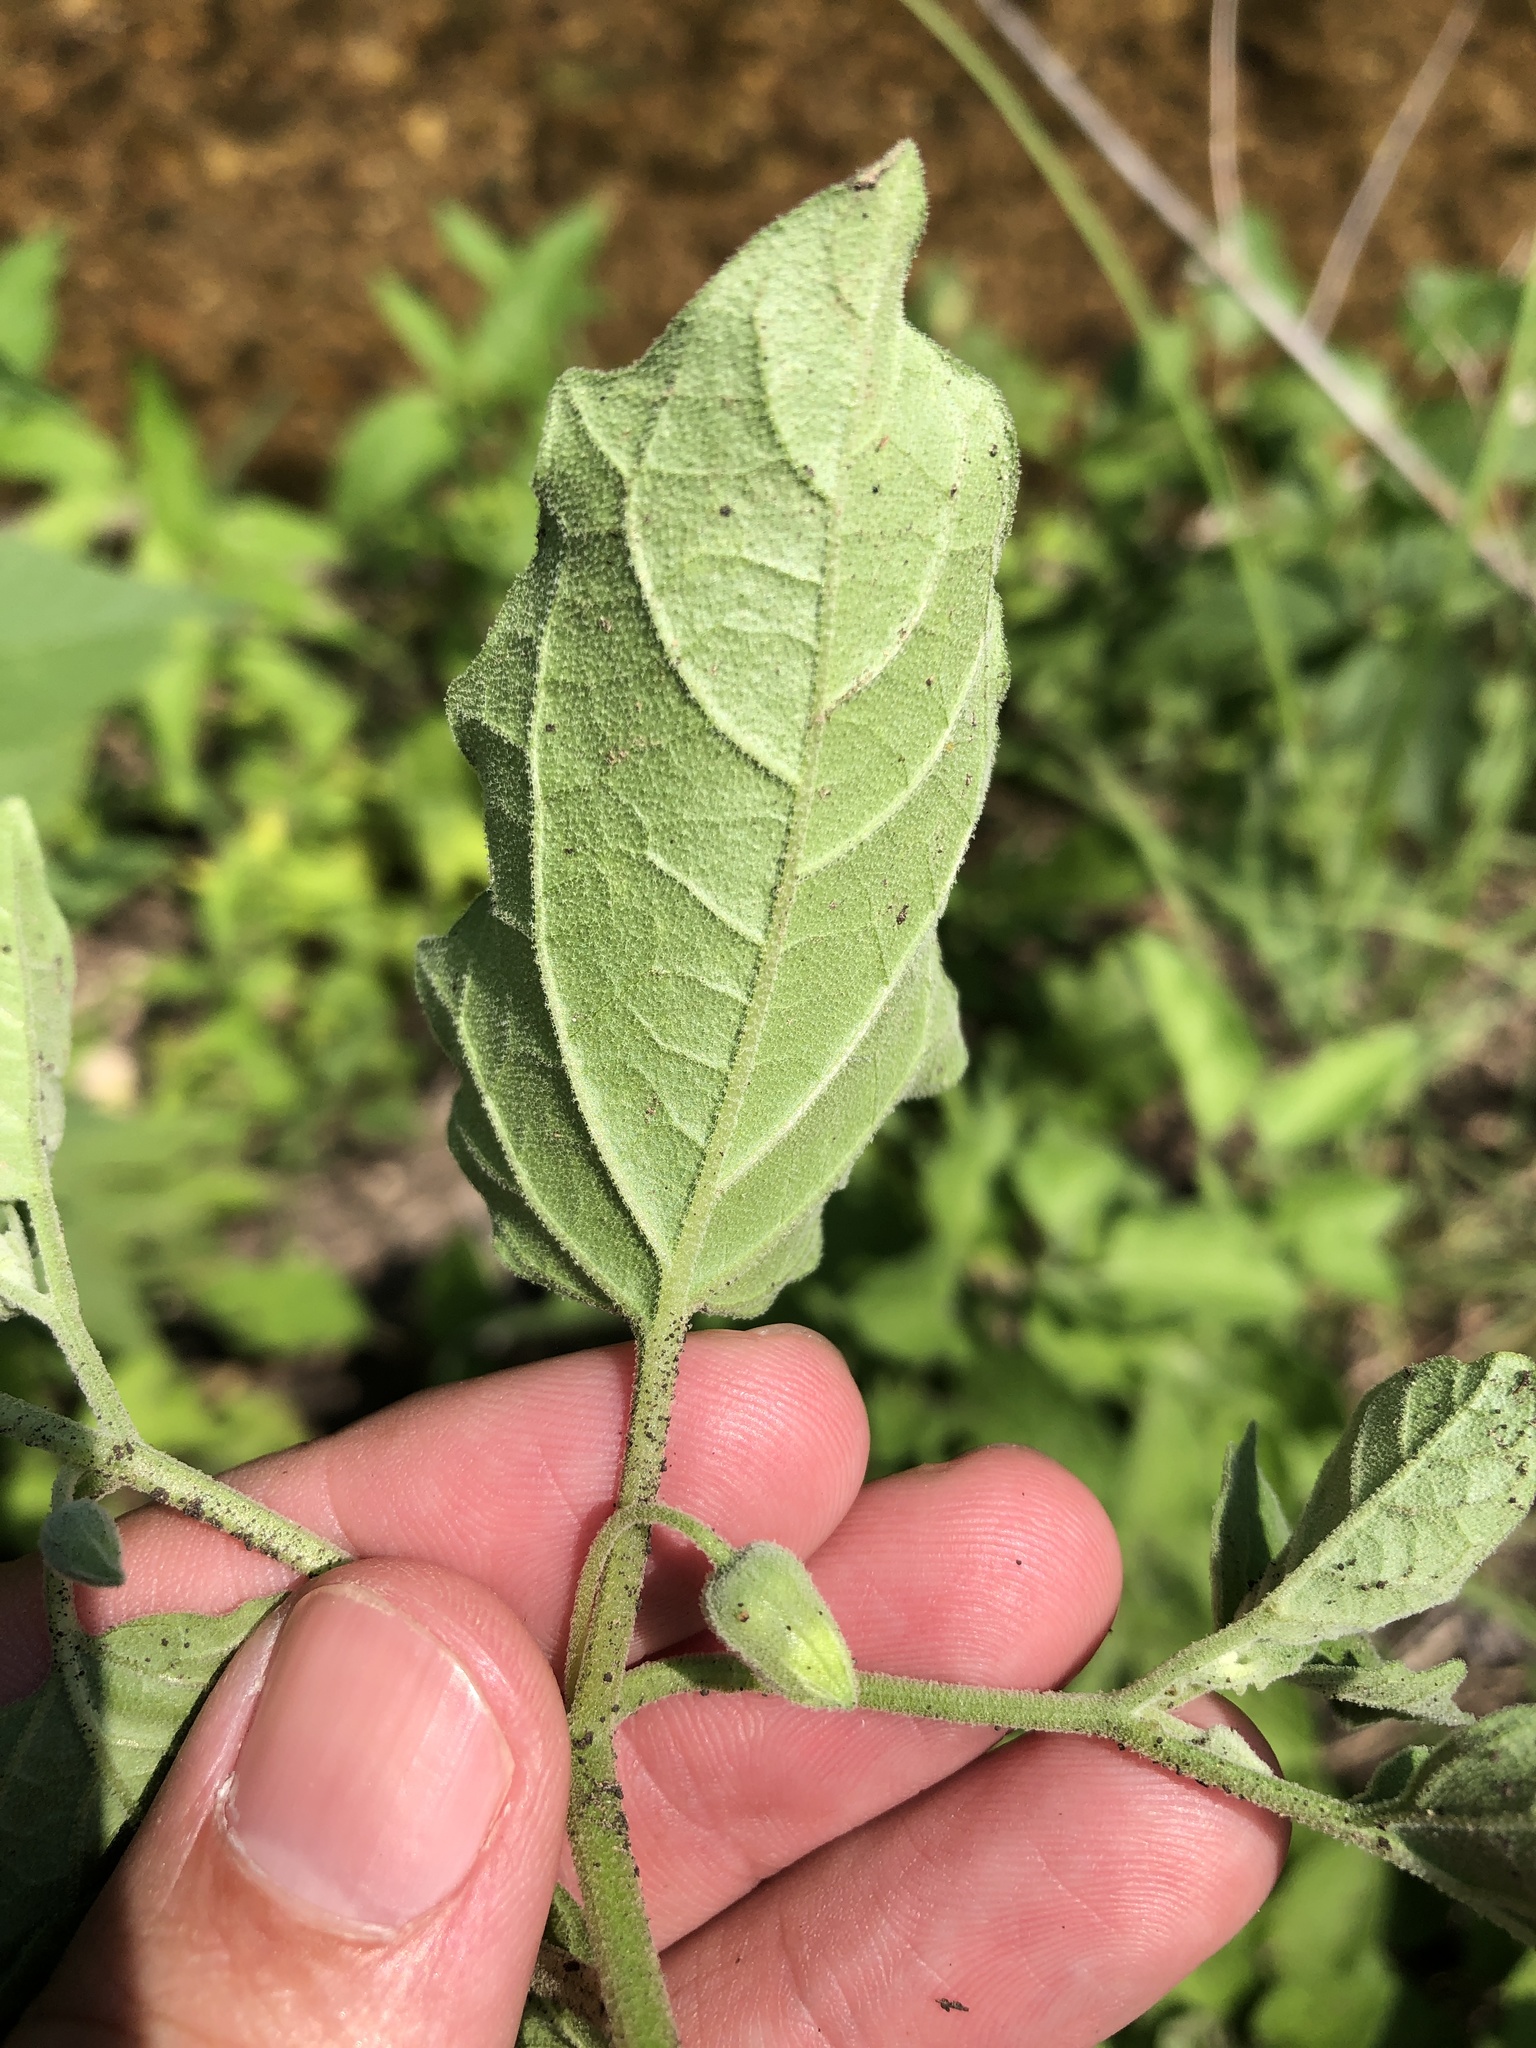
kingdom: Plantae
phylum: Tracheophyta
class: Magnoliopsida
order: Solanales
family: Solanaceae
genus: Physalis
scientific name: Physalis cinerascens
